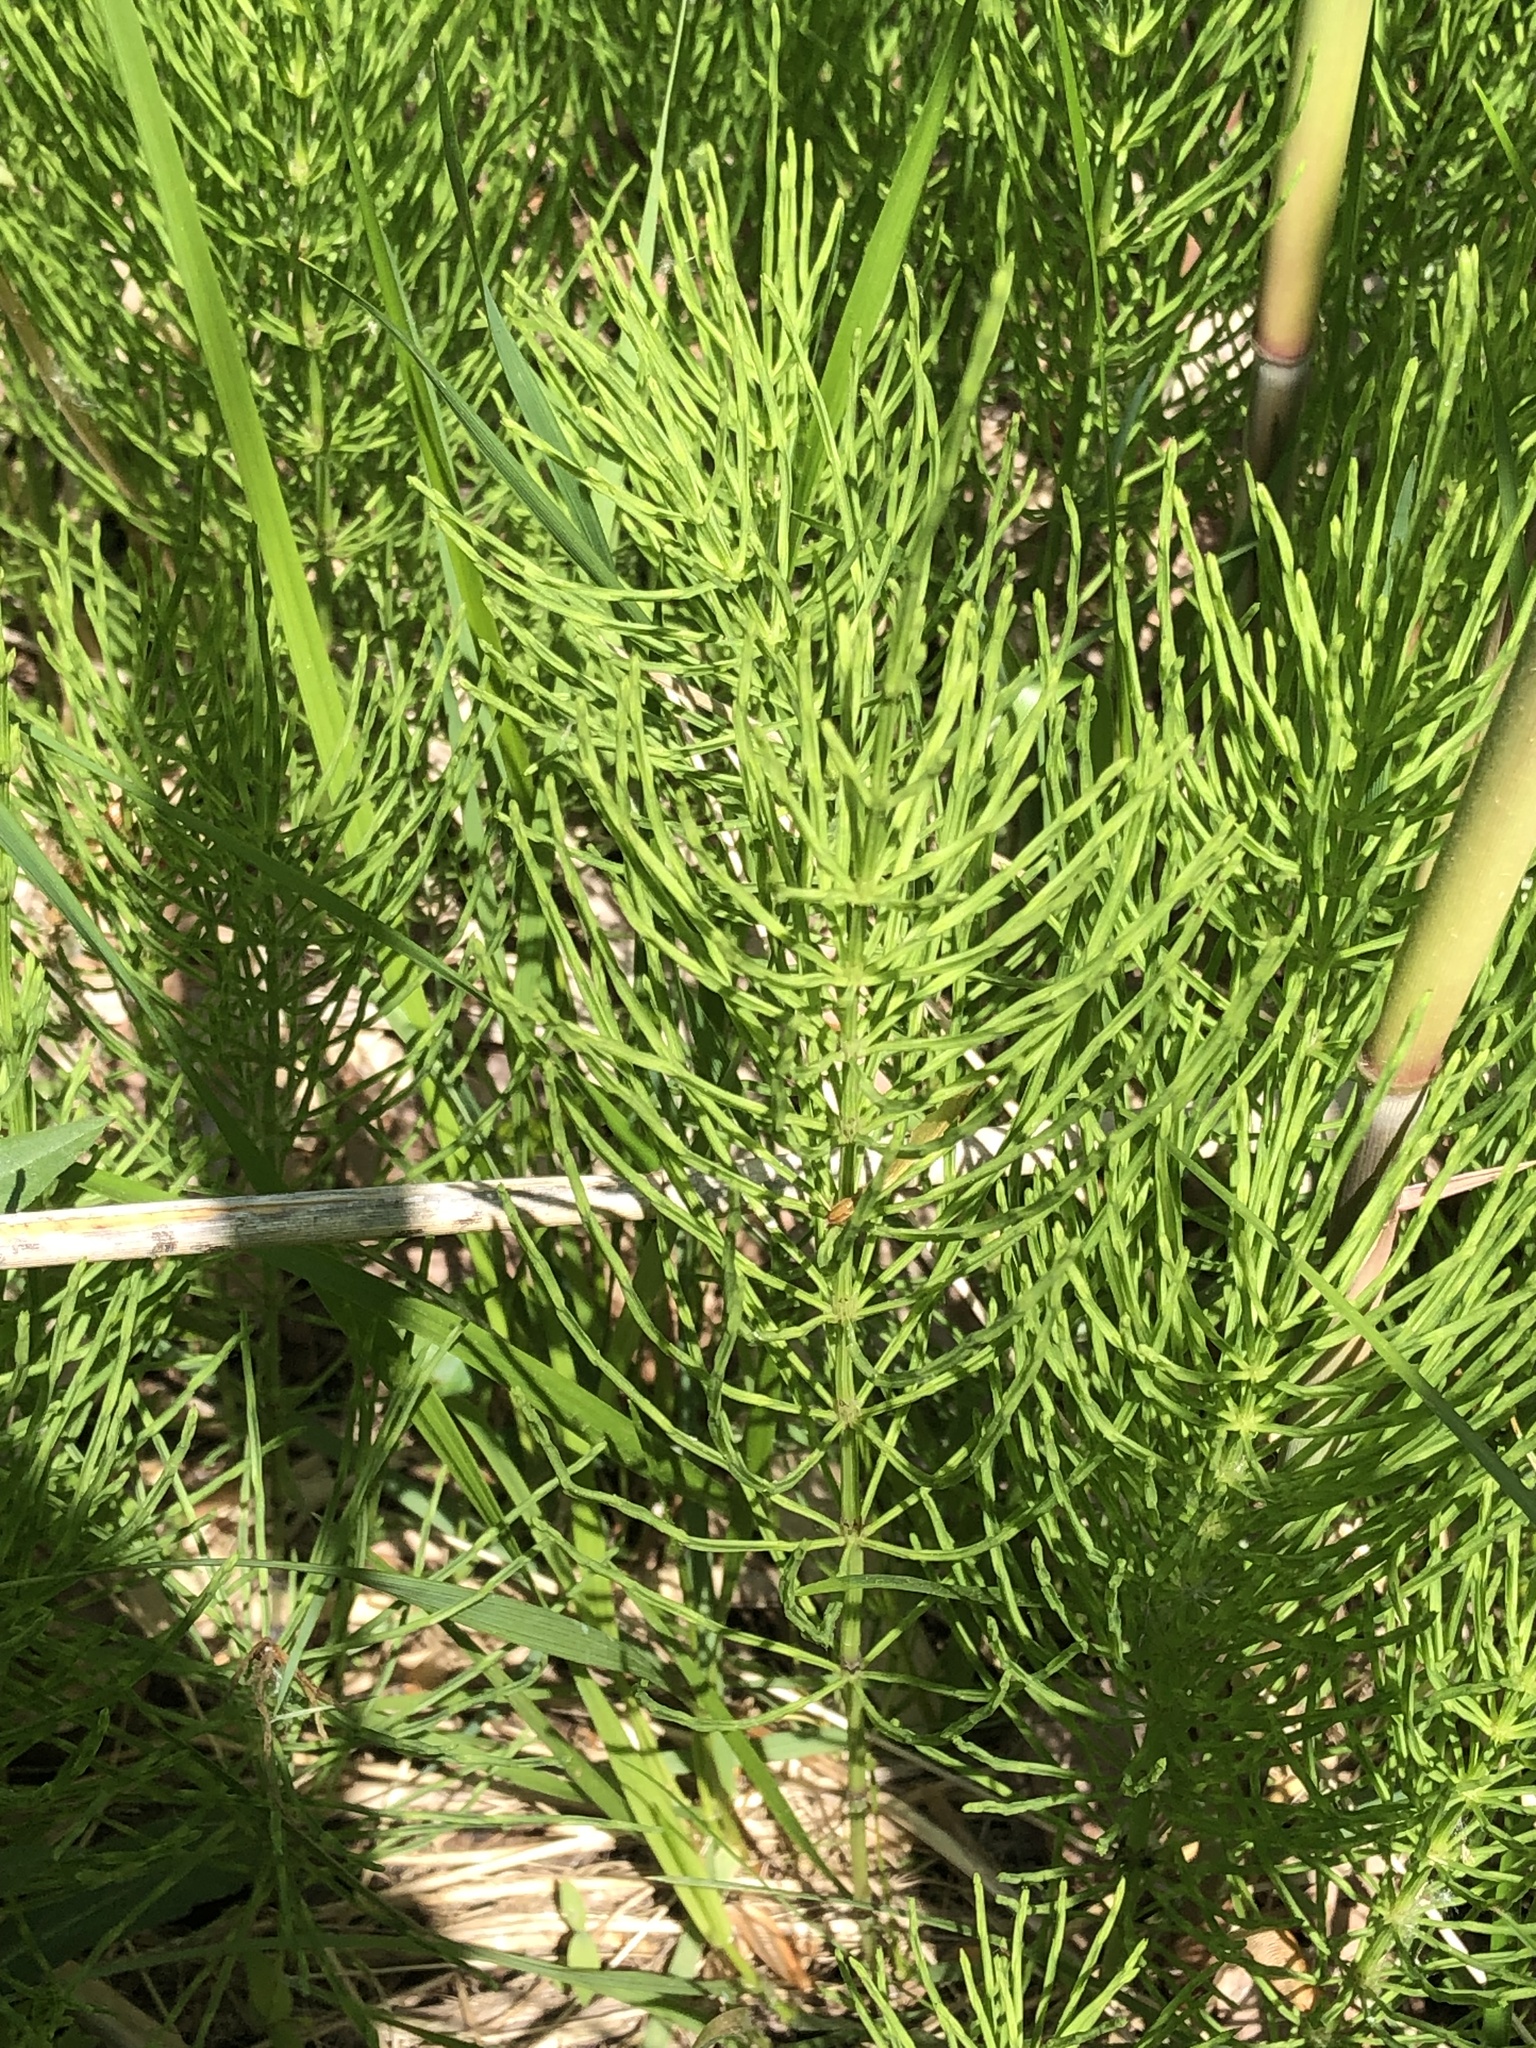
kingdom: Plantae
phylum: Tracheophyta
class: Polypodiopsida
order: Equisetales
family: Equisetaceae
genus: Equisetum
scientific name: Equisetum arvense
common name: Field horsetail
